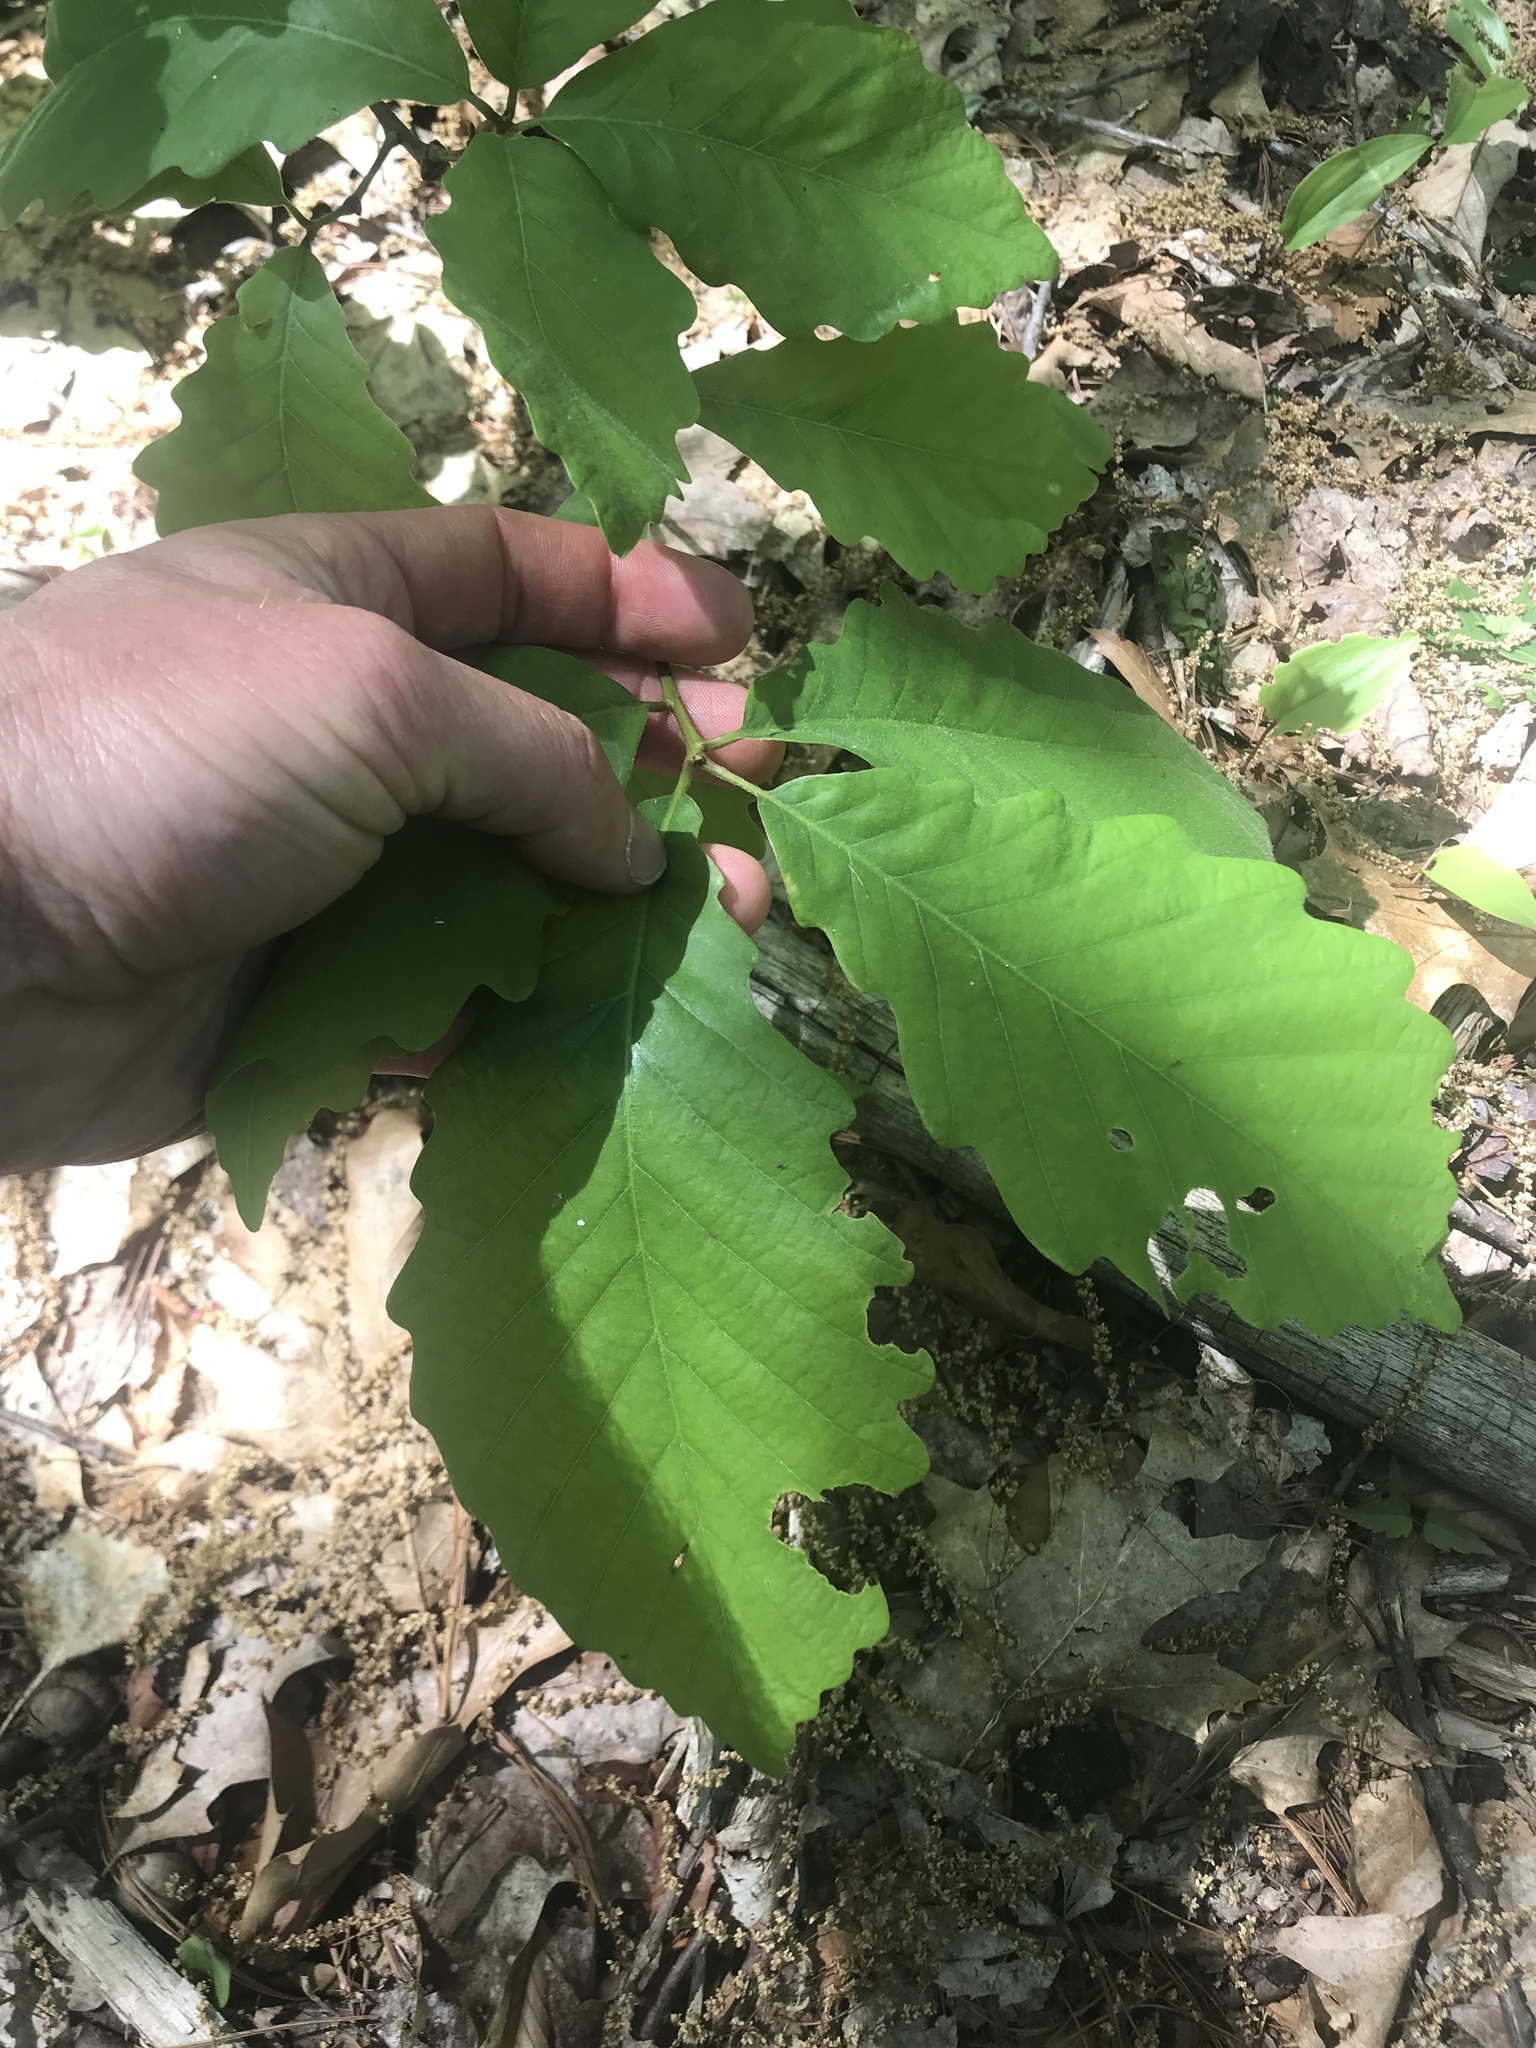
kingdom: Plantae
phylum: Tracheophyta
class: Magnoliopsida
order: Fagales
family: Fagaceae
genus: Quercus
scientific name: Quercus montana
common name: Chestnut oak
